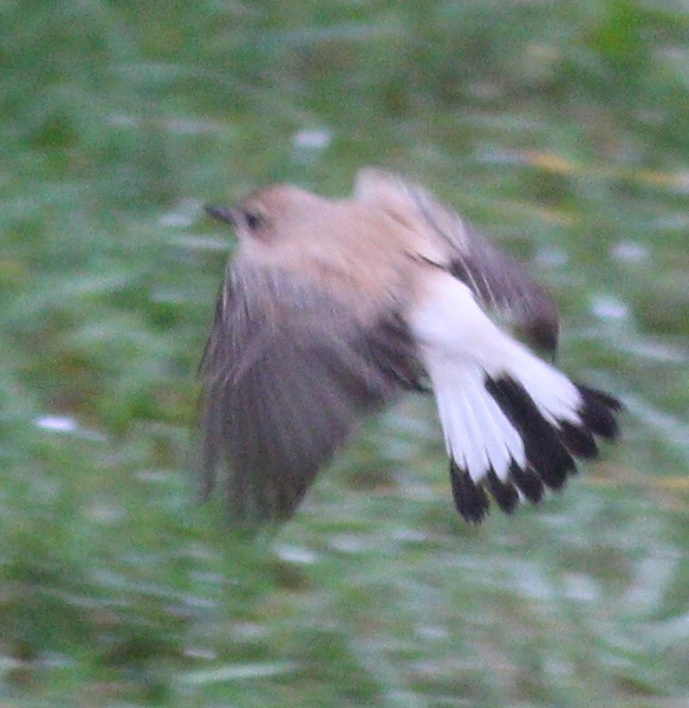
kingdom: Animalia
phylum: Chordata
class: Aves
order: Passeriformes
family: Muscicapidae
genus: Oenanthe
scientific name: Oenanthe hispanica
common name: Black-eared wheatear
